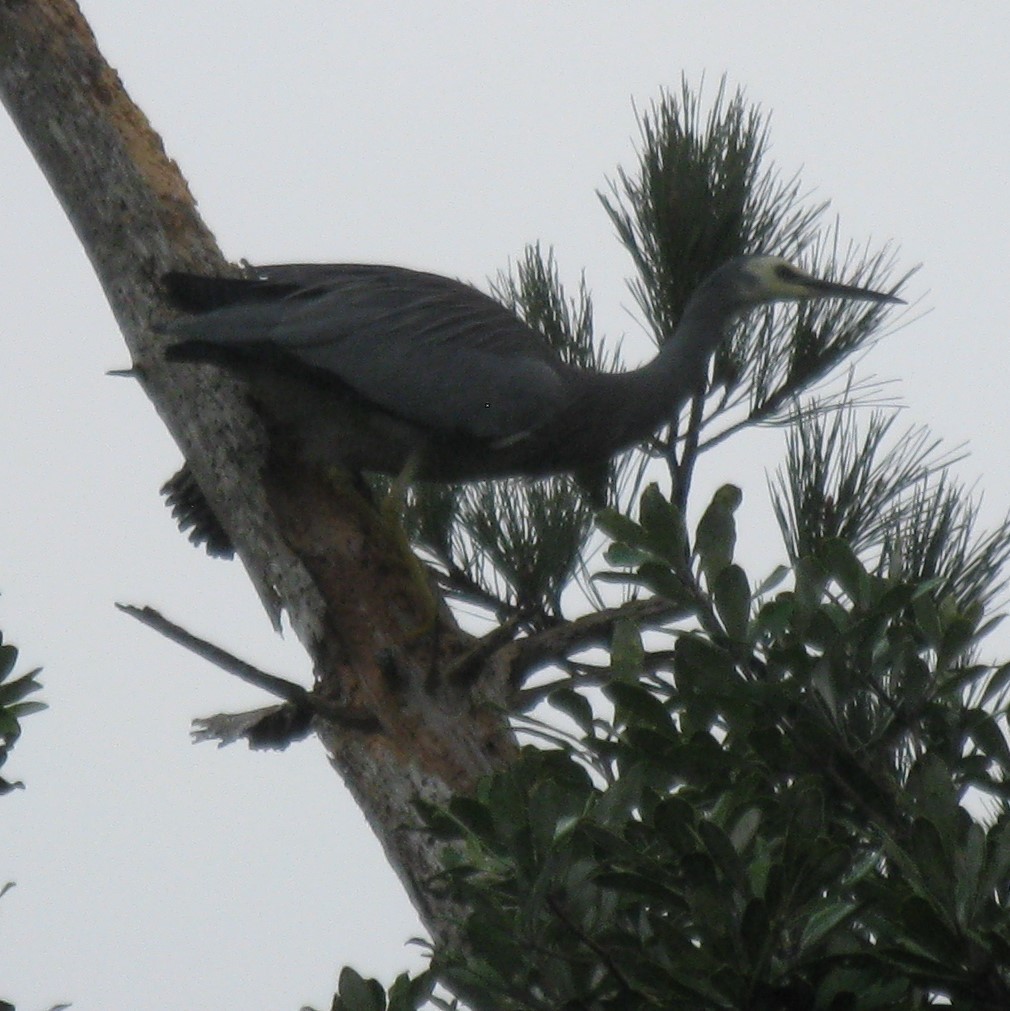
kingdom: Animalia
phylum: Chordata
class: Aves
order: Pelecaniformes
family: Ardeidae
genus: Egretta
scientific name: Egretta novaehollandiae
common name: White-faced heron
